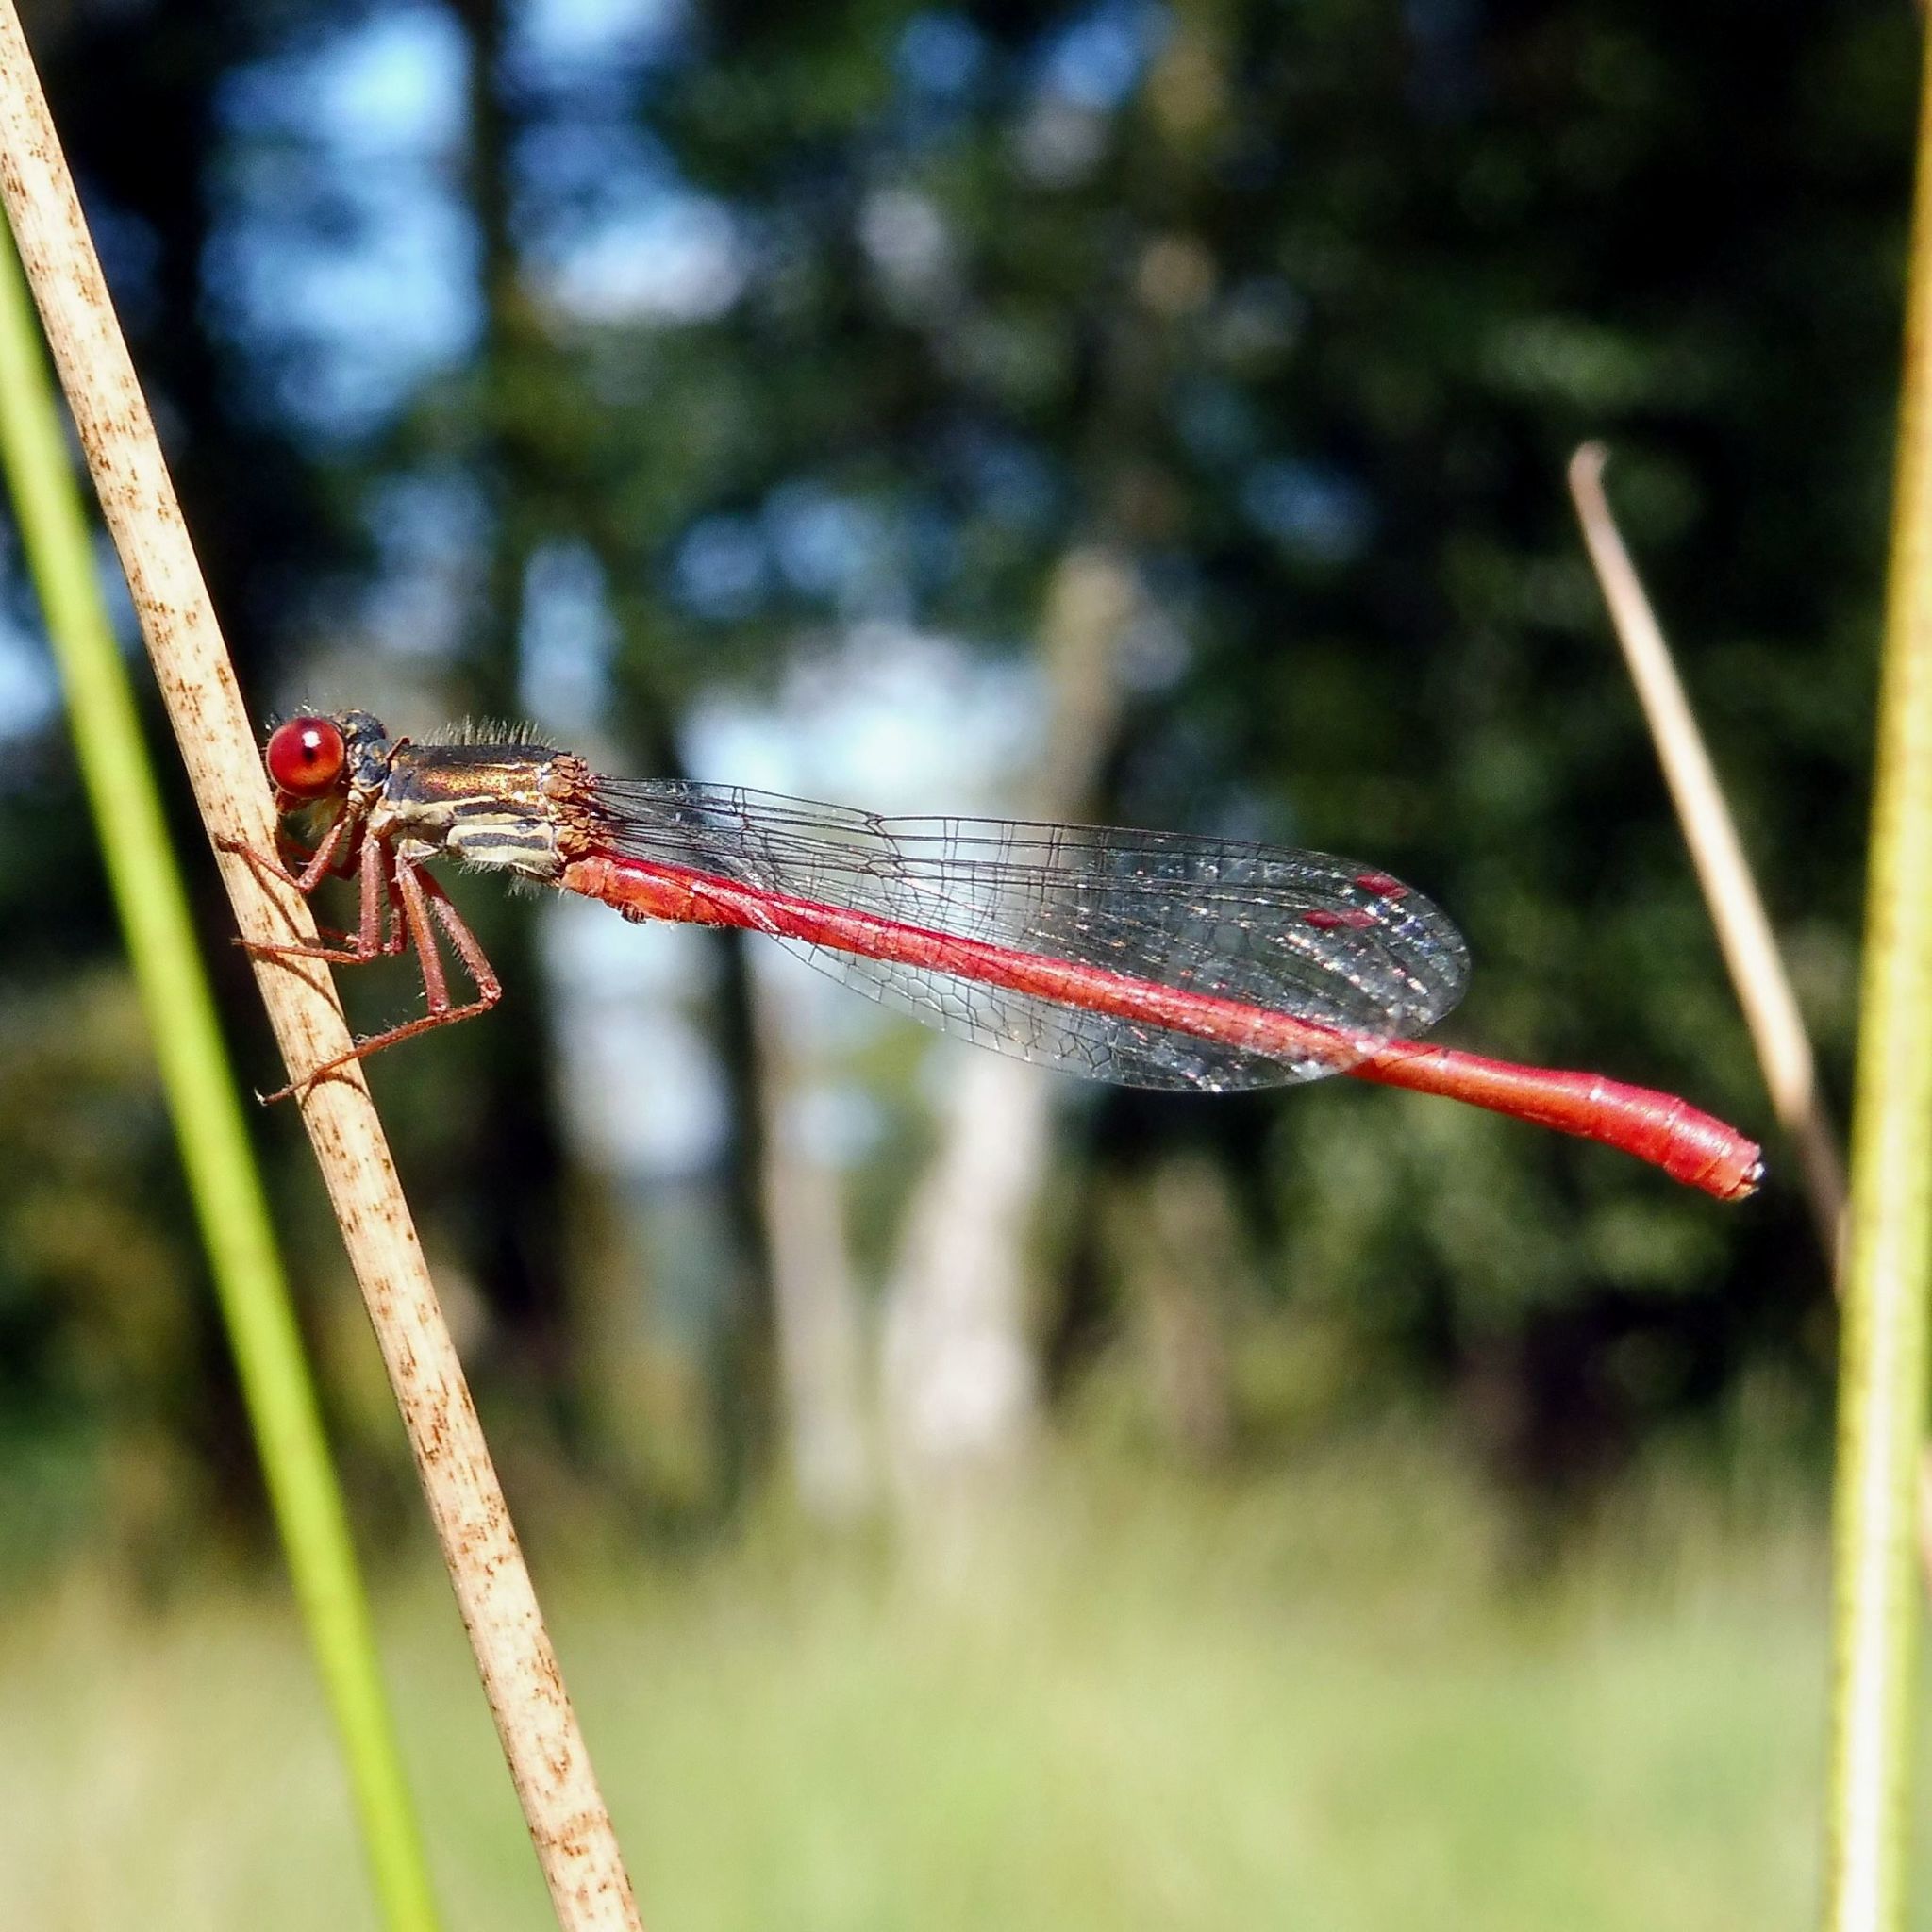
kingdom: Animalia
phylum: Arthropoda
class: Insecta
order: Odonata
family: Coenagrionidae
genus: Ceriagrion
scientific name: Ceriagrion tenellum
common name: Small red damselfly
